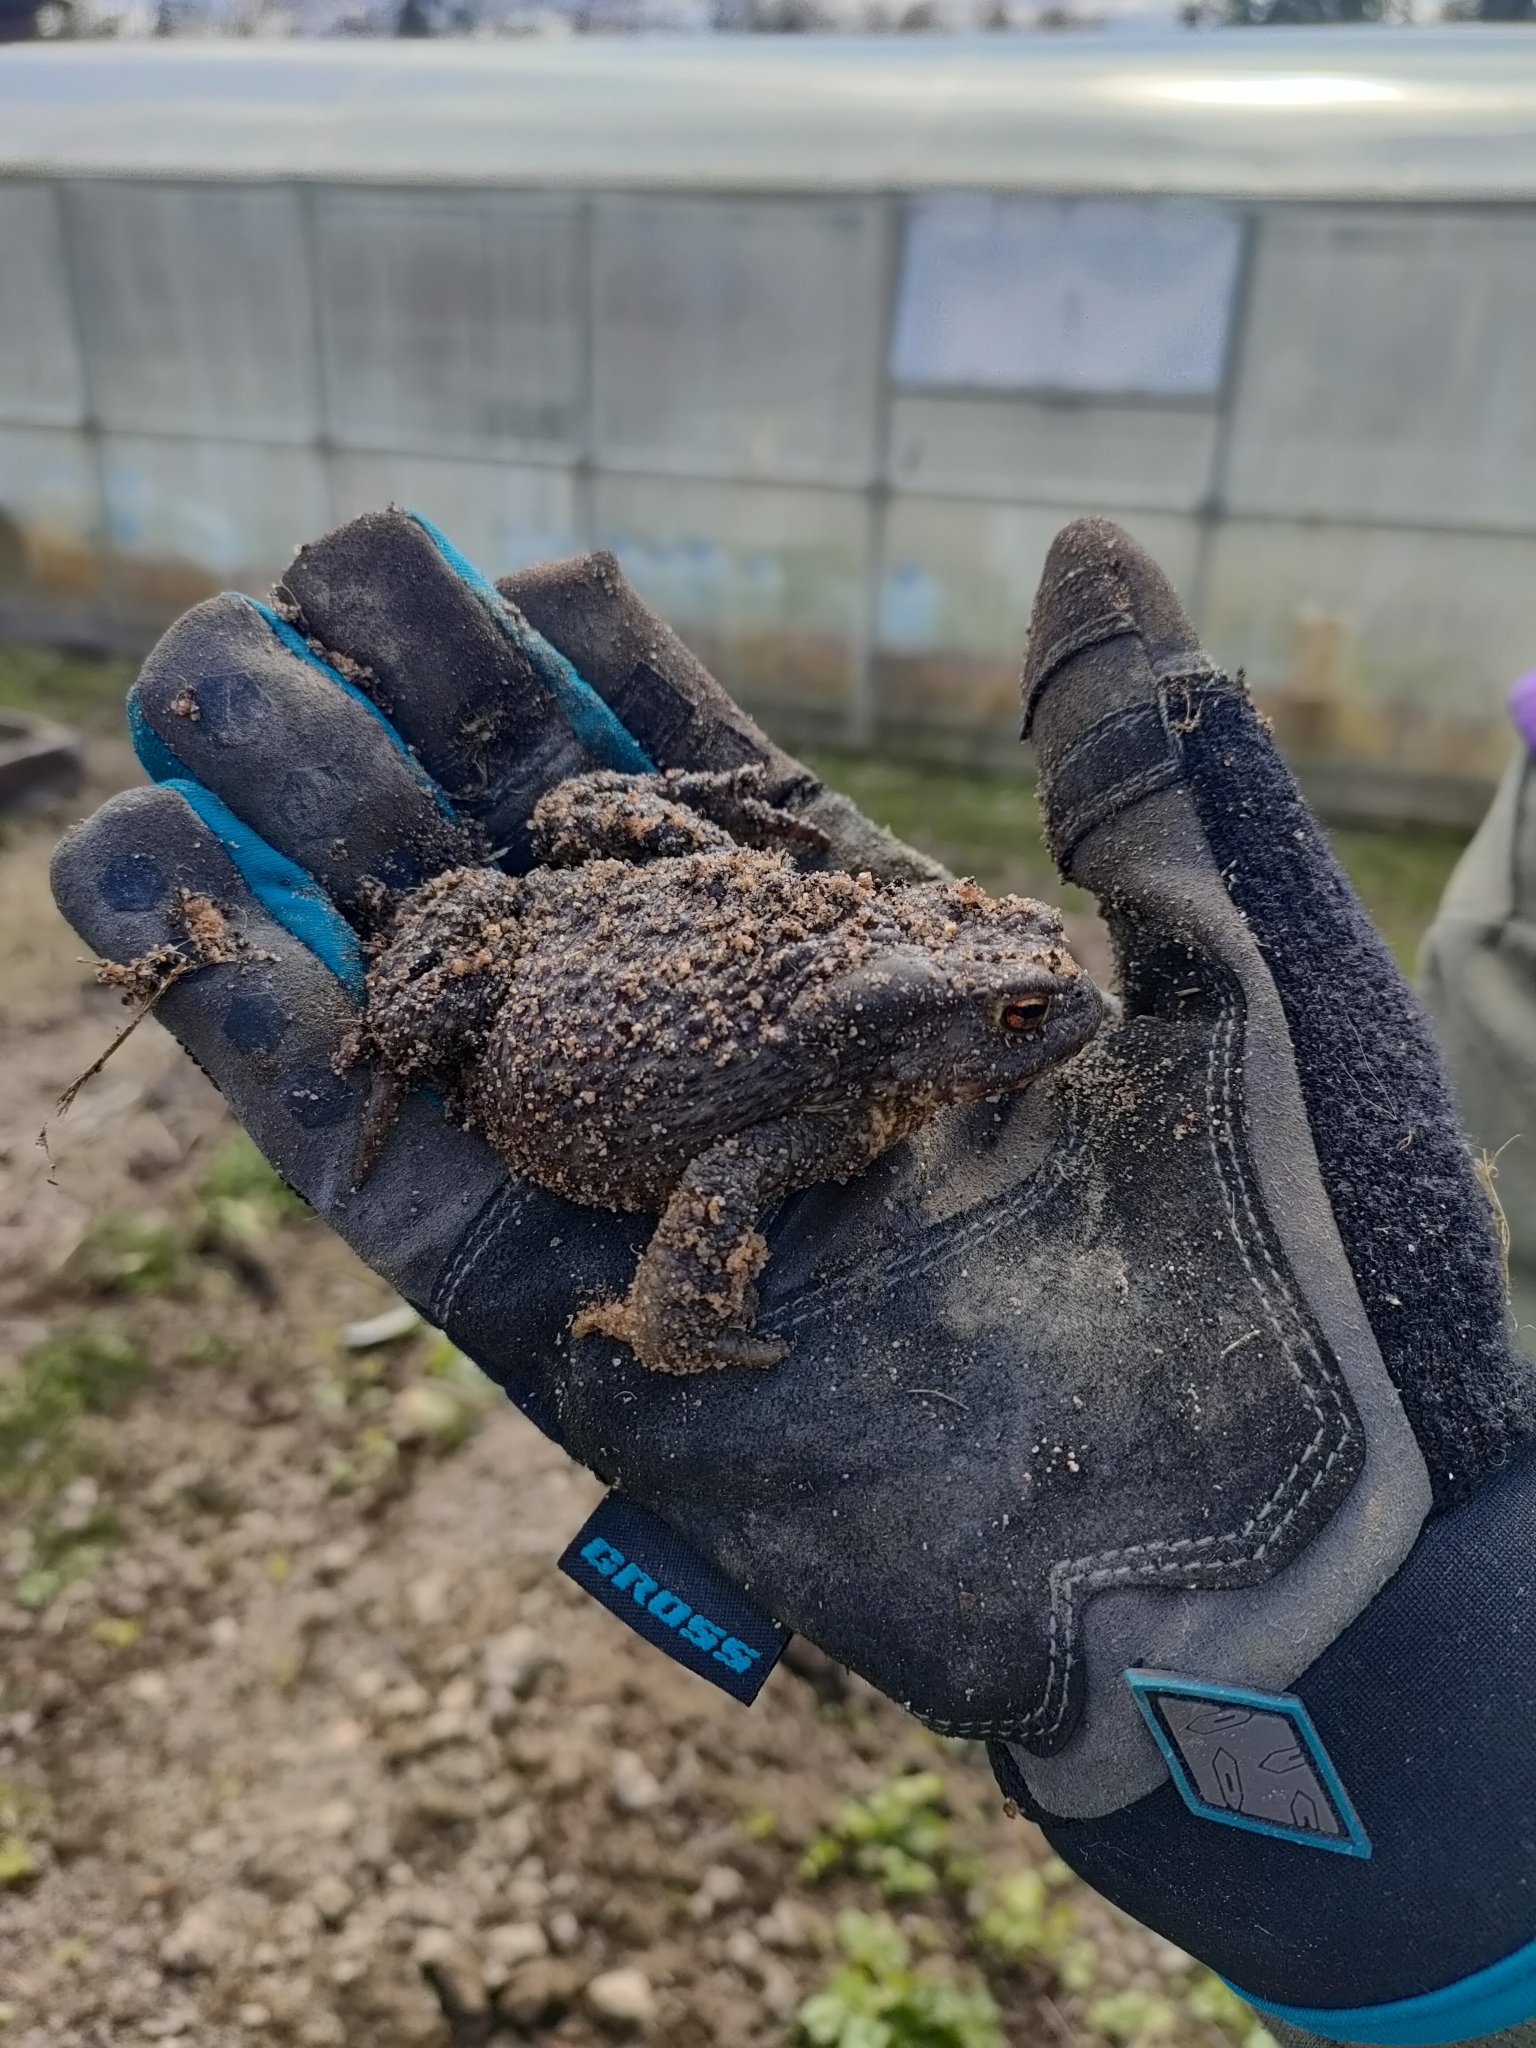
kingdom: Animalia
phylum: Chordata
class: Amphibia
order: Anura
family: Bufonidae
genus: Bufo
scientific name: Bufo bufo
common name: Common toad
